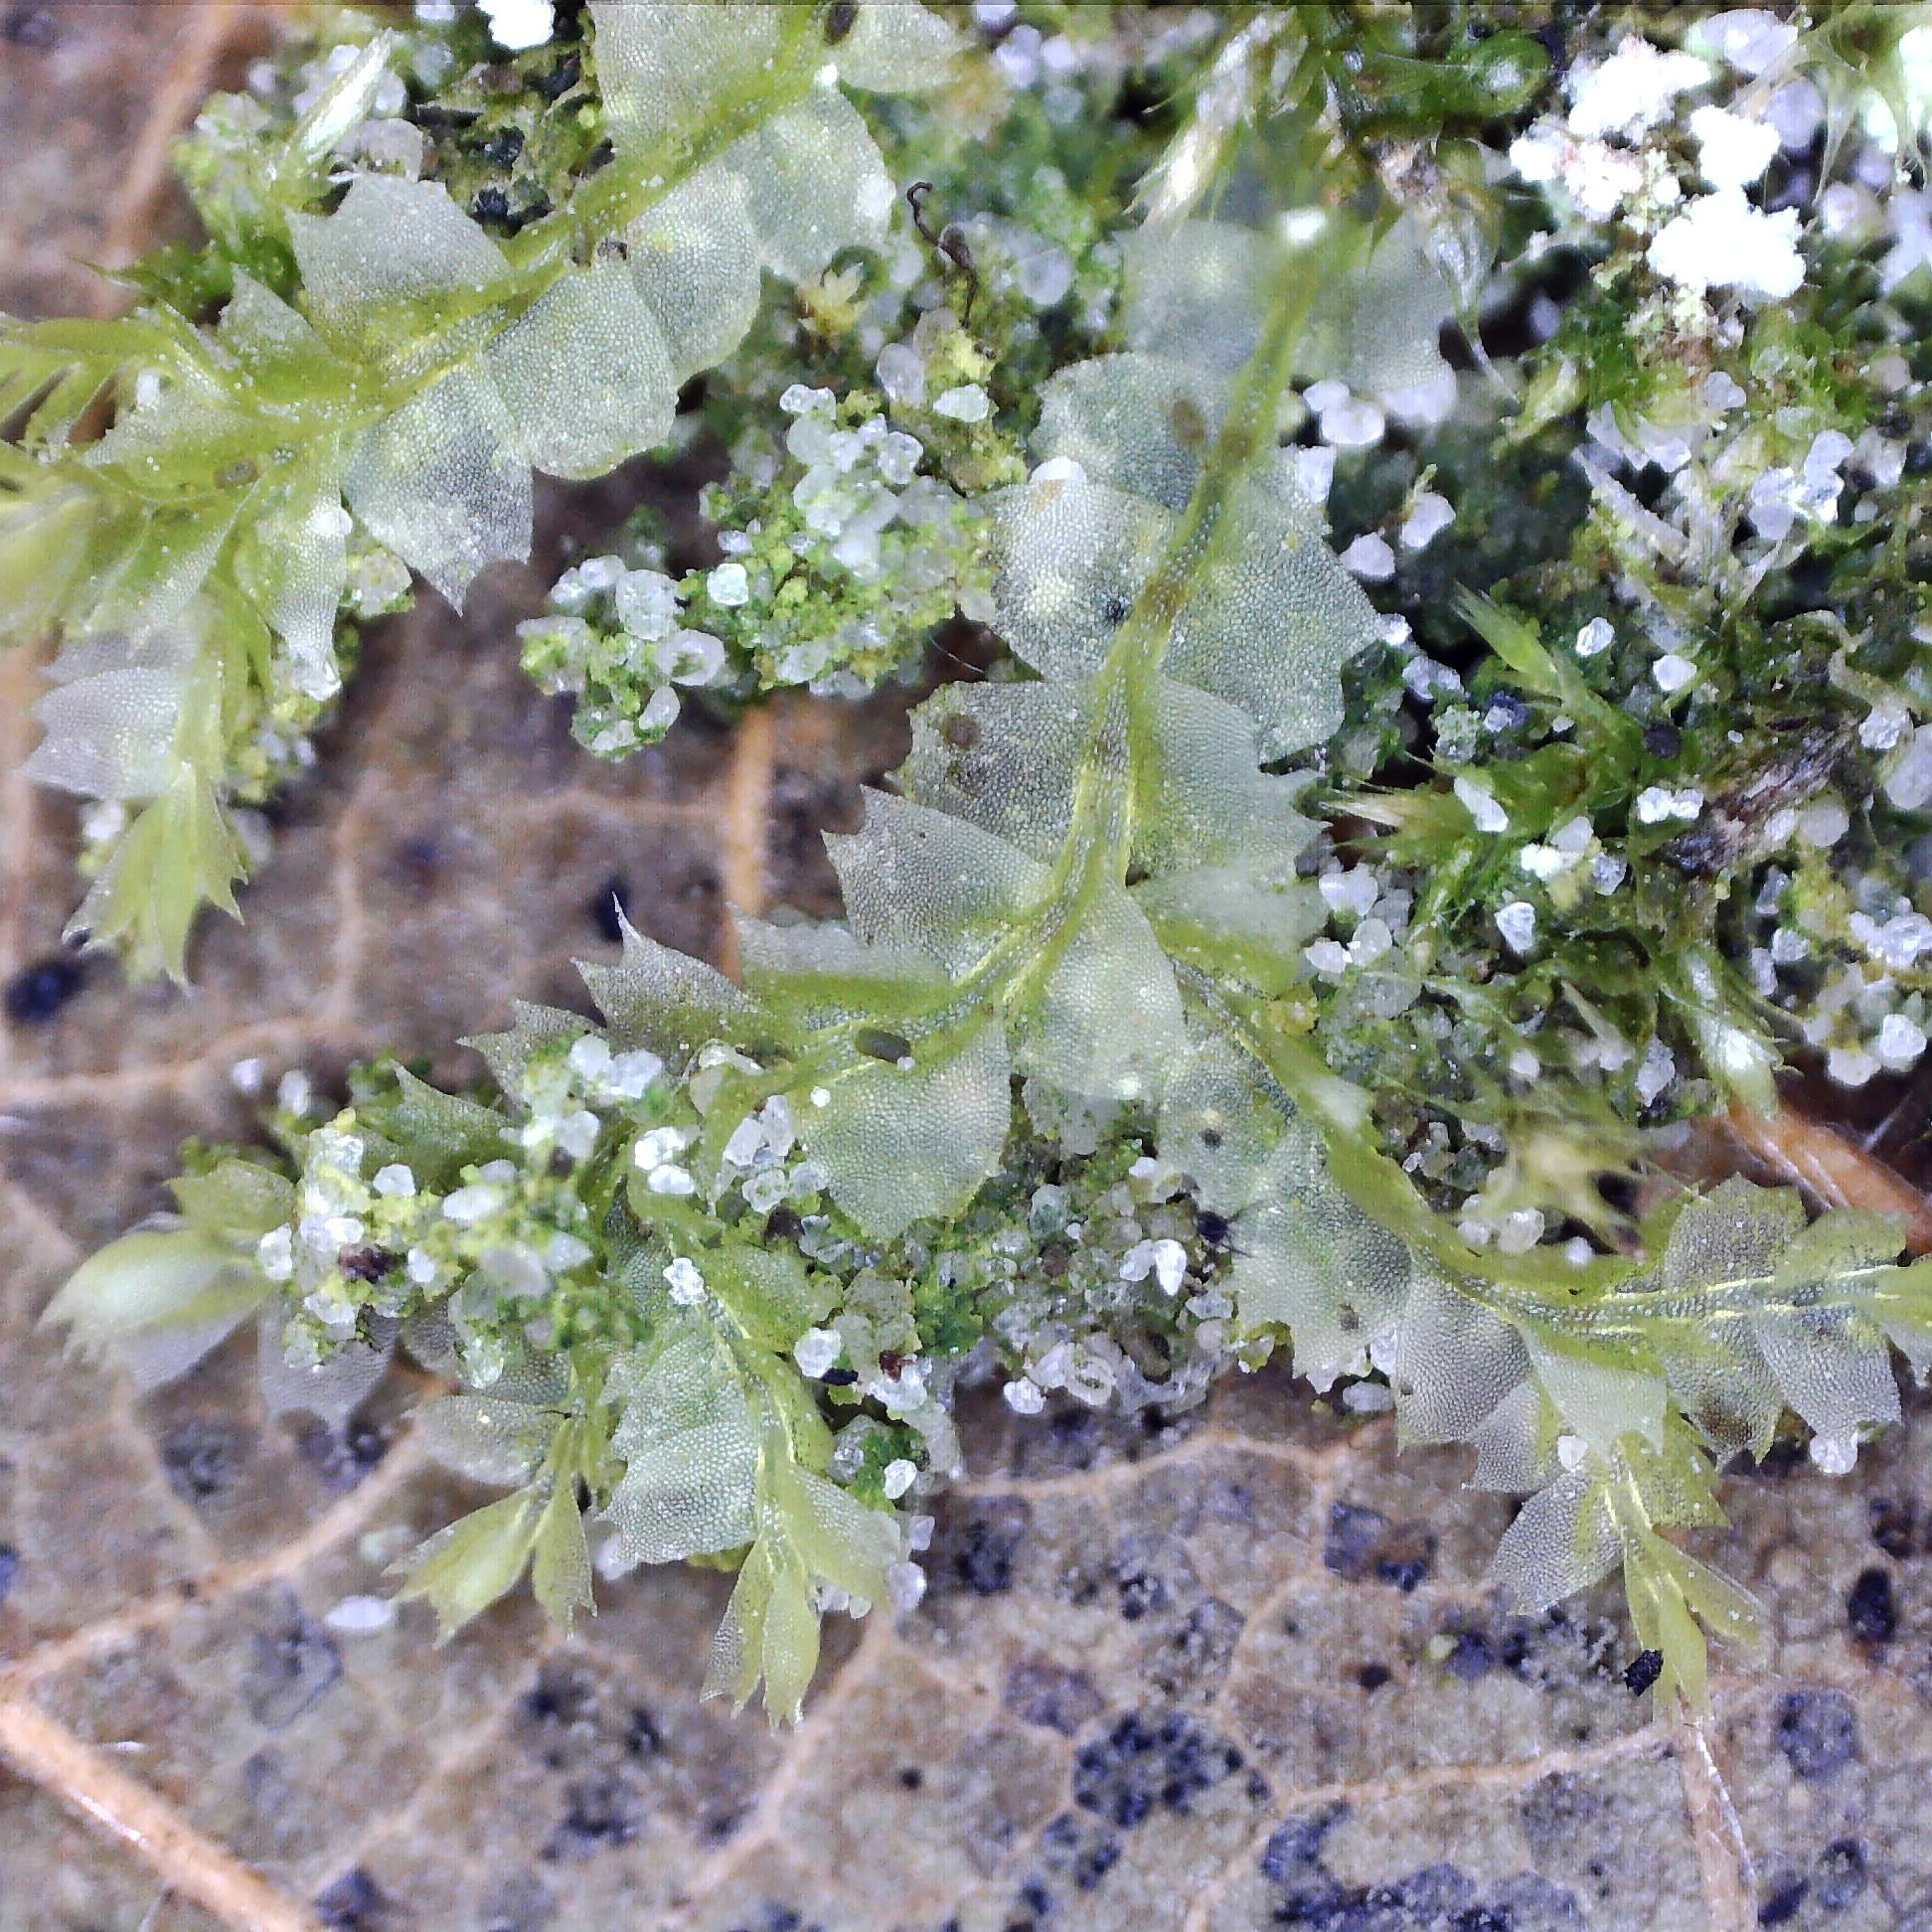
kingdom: Plantae
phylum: Marchantiophyta
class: Jungermanniopsida
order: Jungermanniales
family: Lophocoleaceae
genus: Lophocolea
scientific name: Lophocolea bidentata
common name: Bifid crestwort
